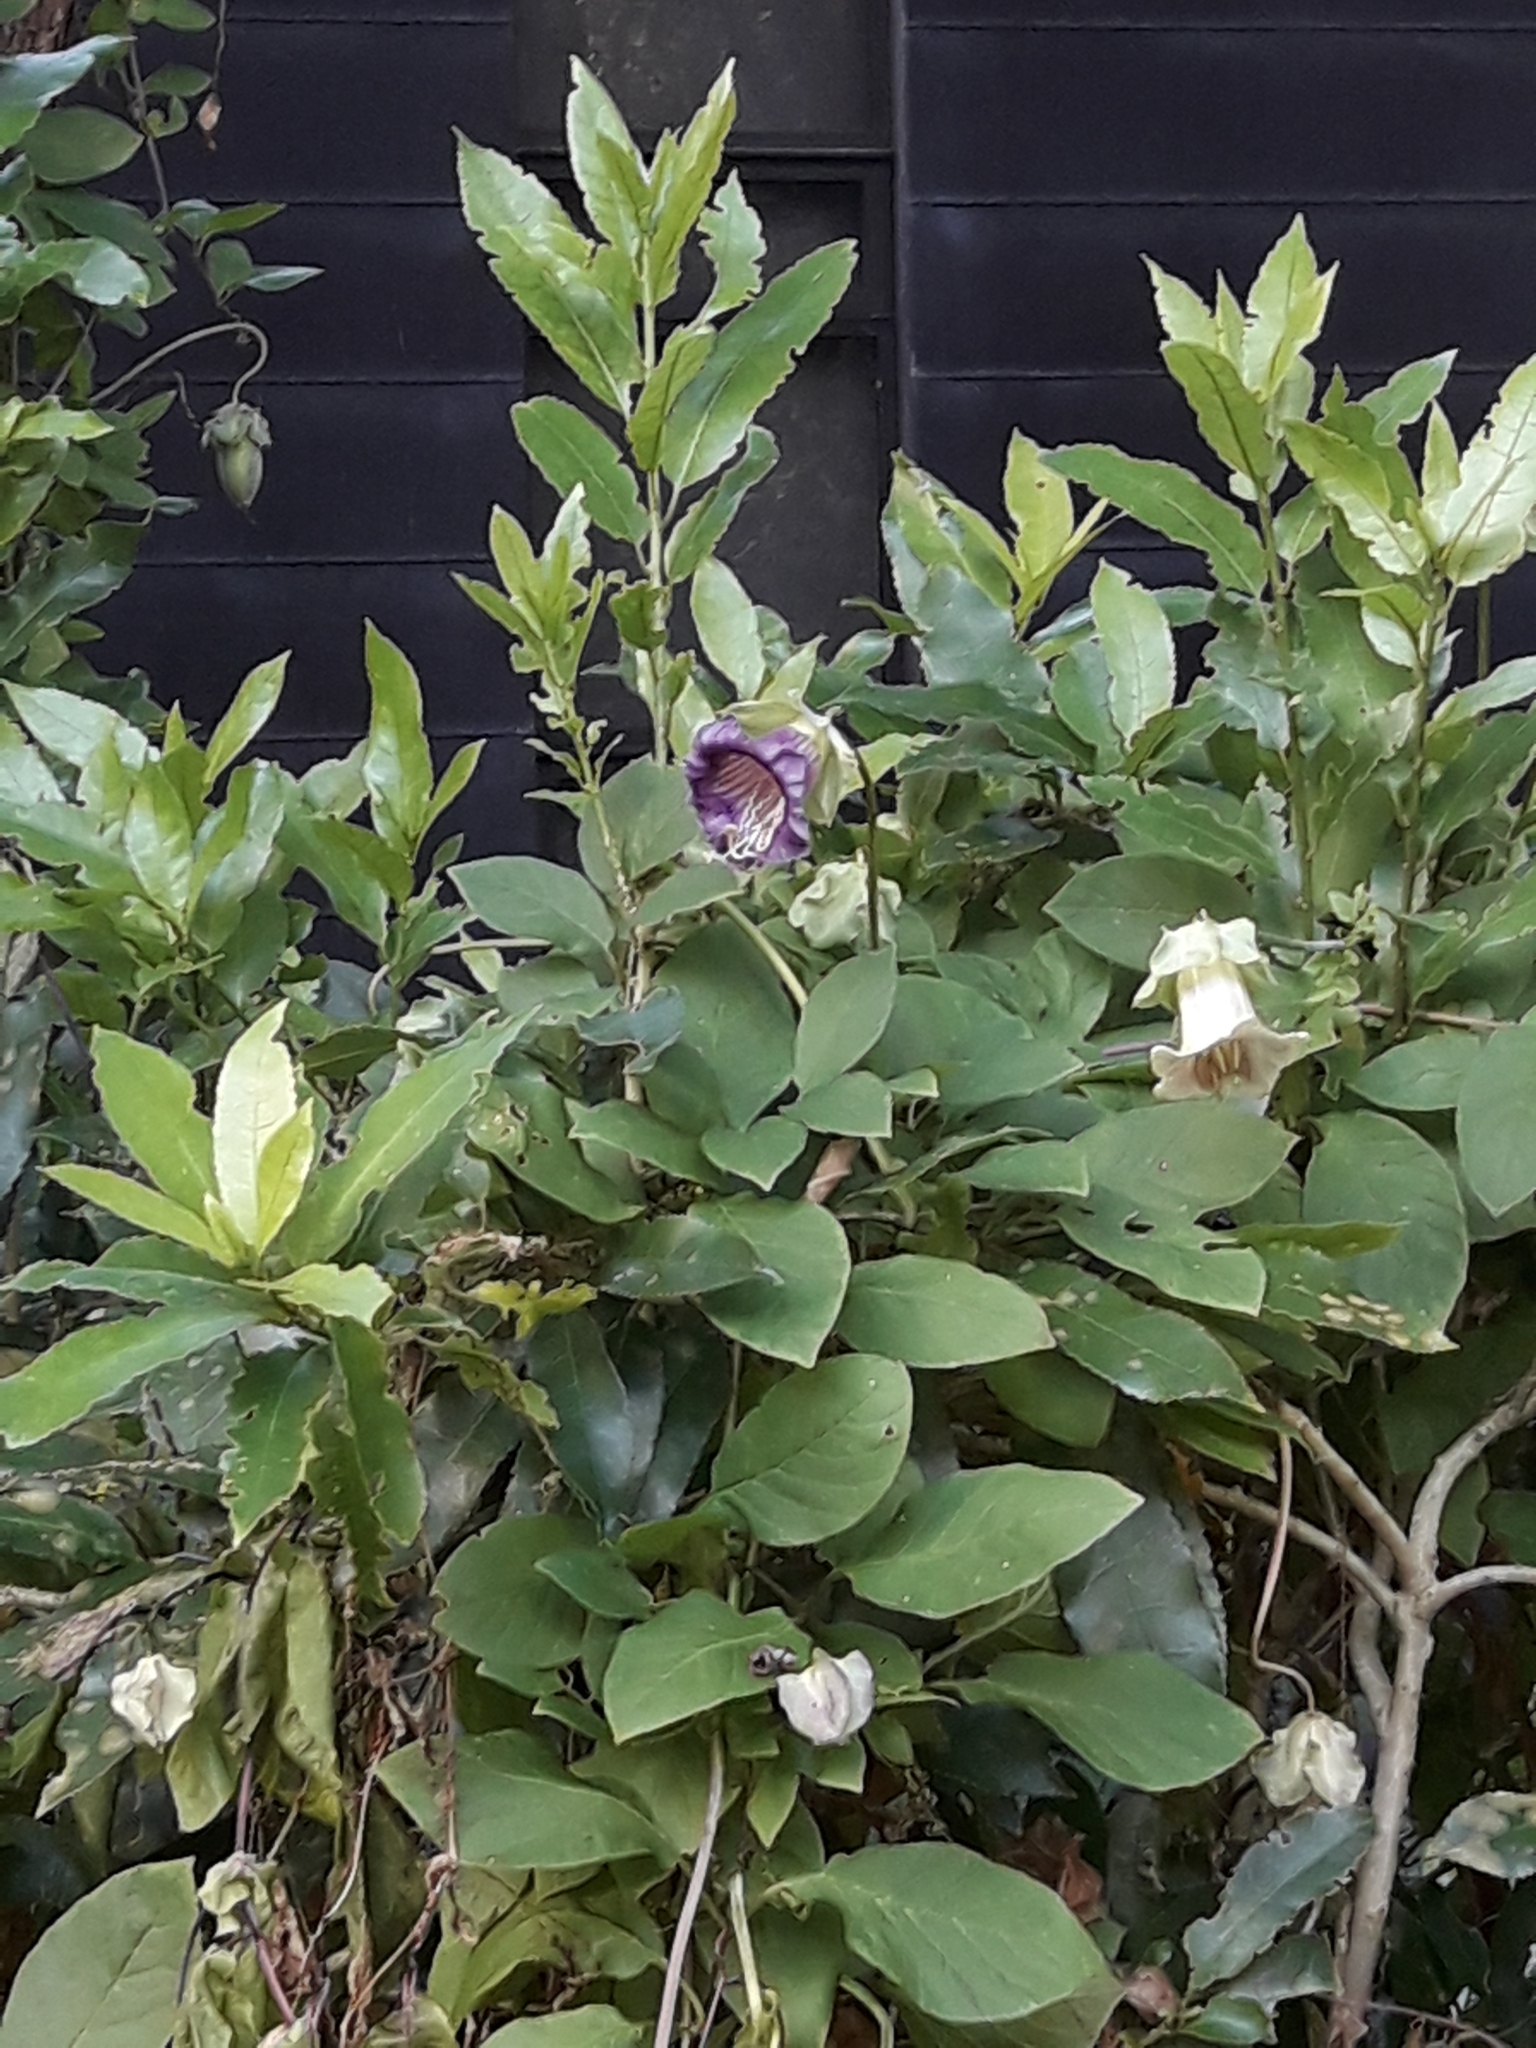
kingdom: Plantae
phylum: Tracheophyta
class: Magnoliopsida
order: Ericales
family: Polemoniaceae
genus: Cobaea
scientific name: Cobaea scandens
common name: Cup-and-saucer-vine
